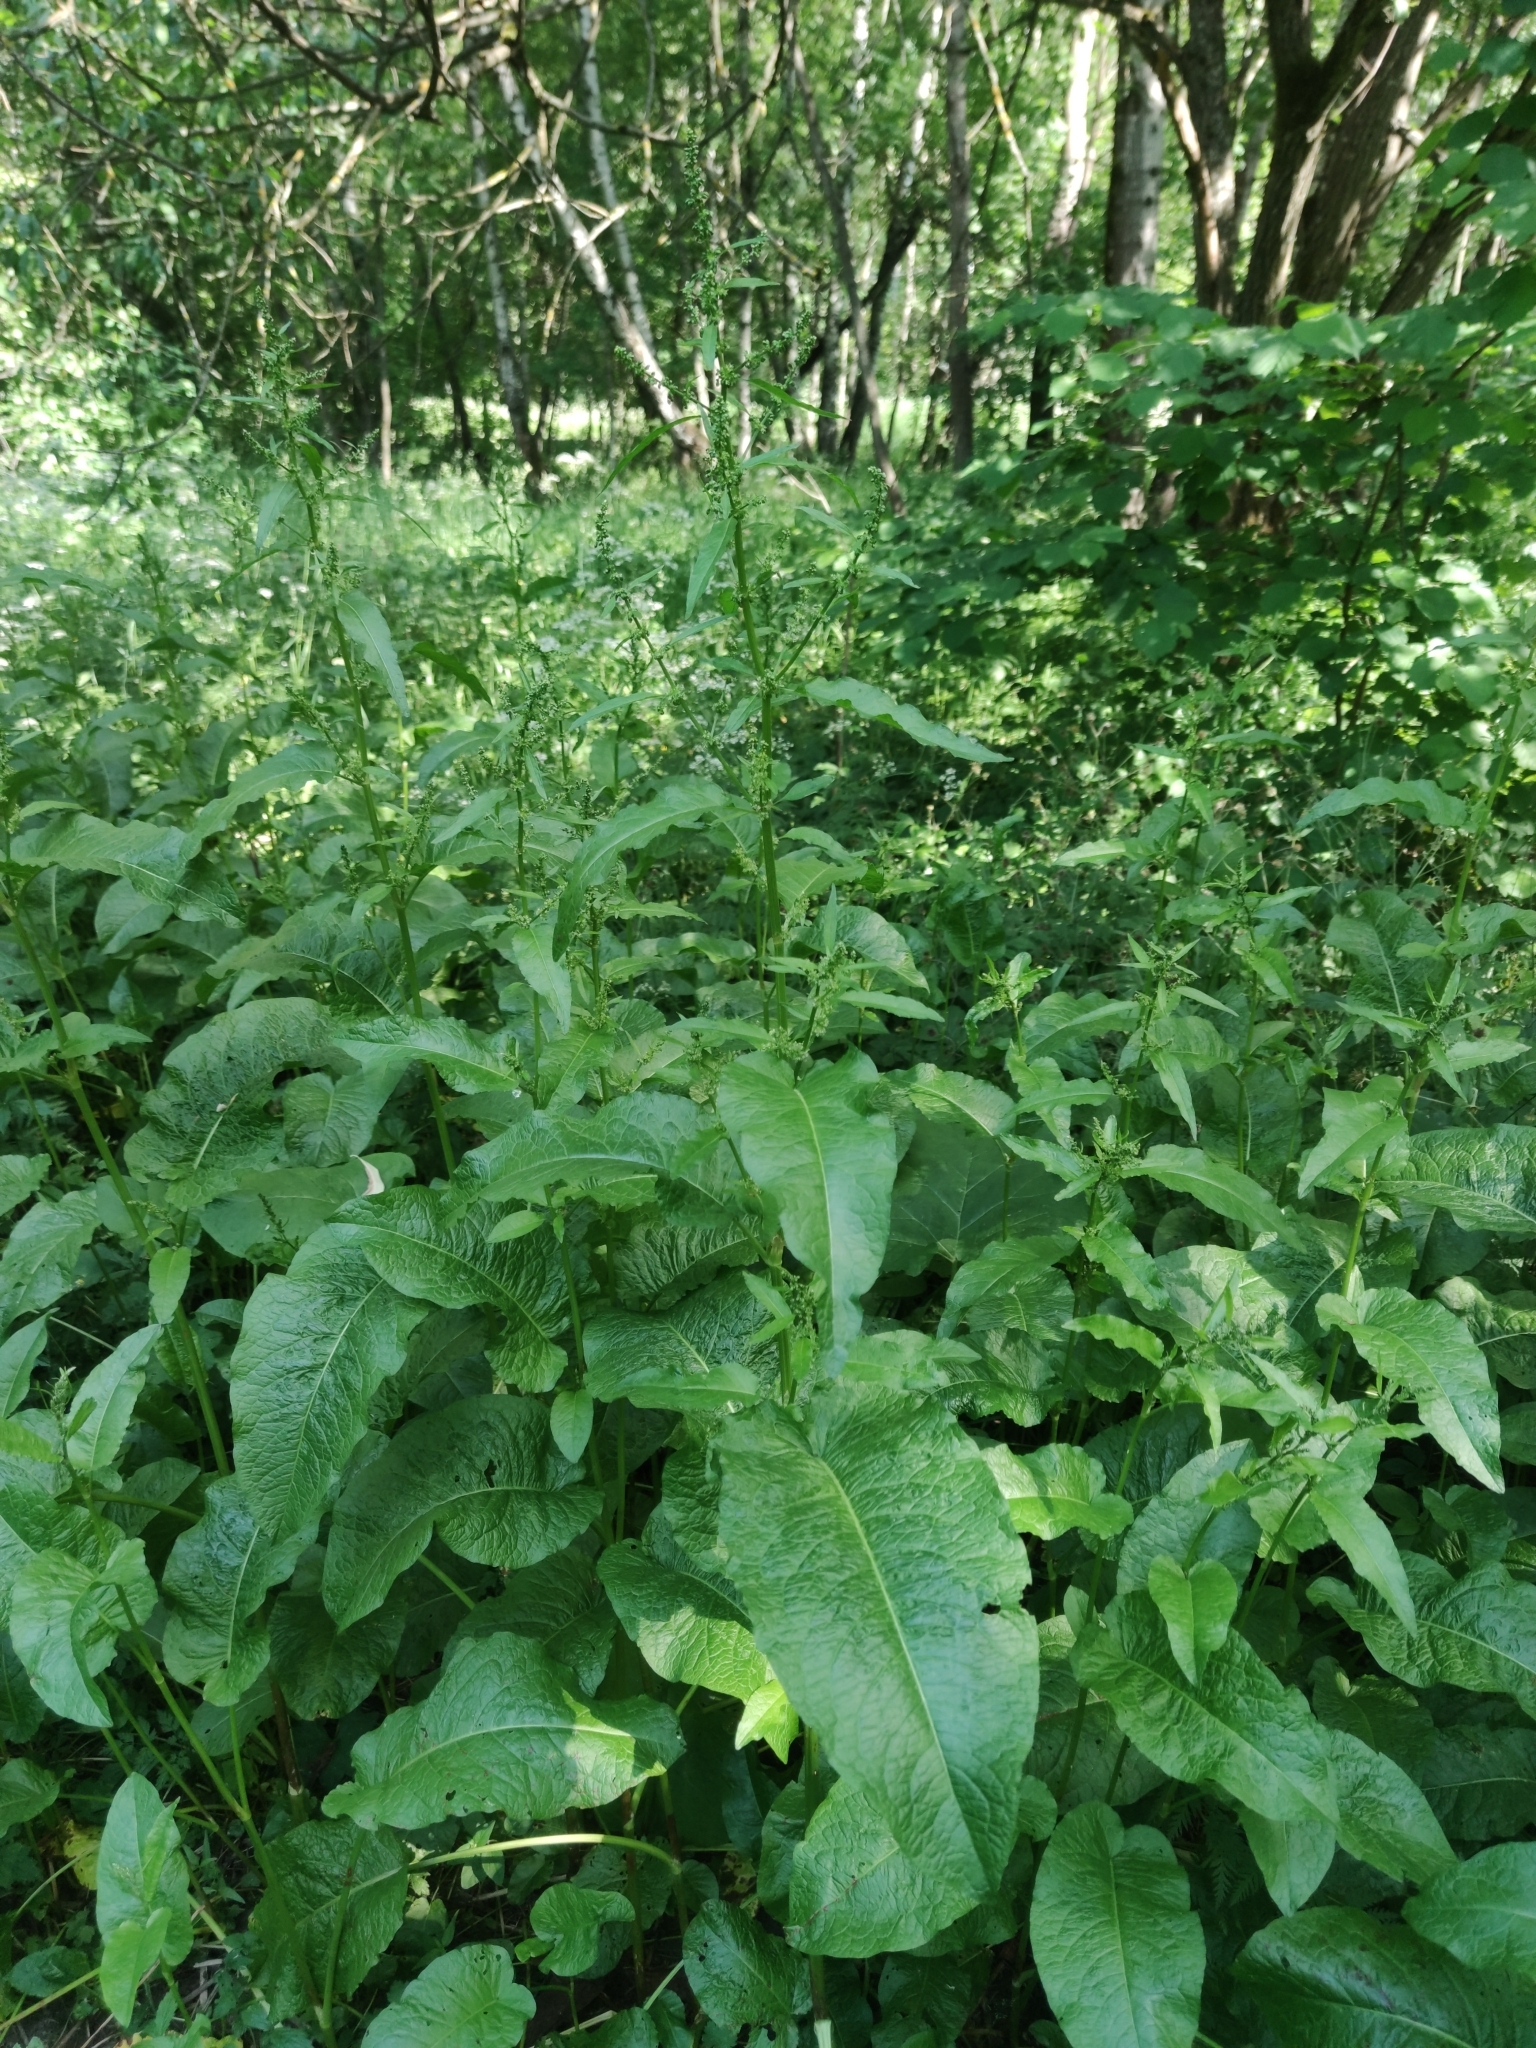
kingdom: Plantae
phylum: Tracheophyta
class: Magnoliopsida
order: Caryophyllales
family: Polygonaceae
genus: Rumex
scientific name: Rumex obtusifolius
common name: Bitter dock
